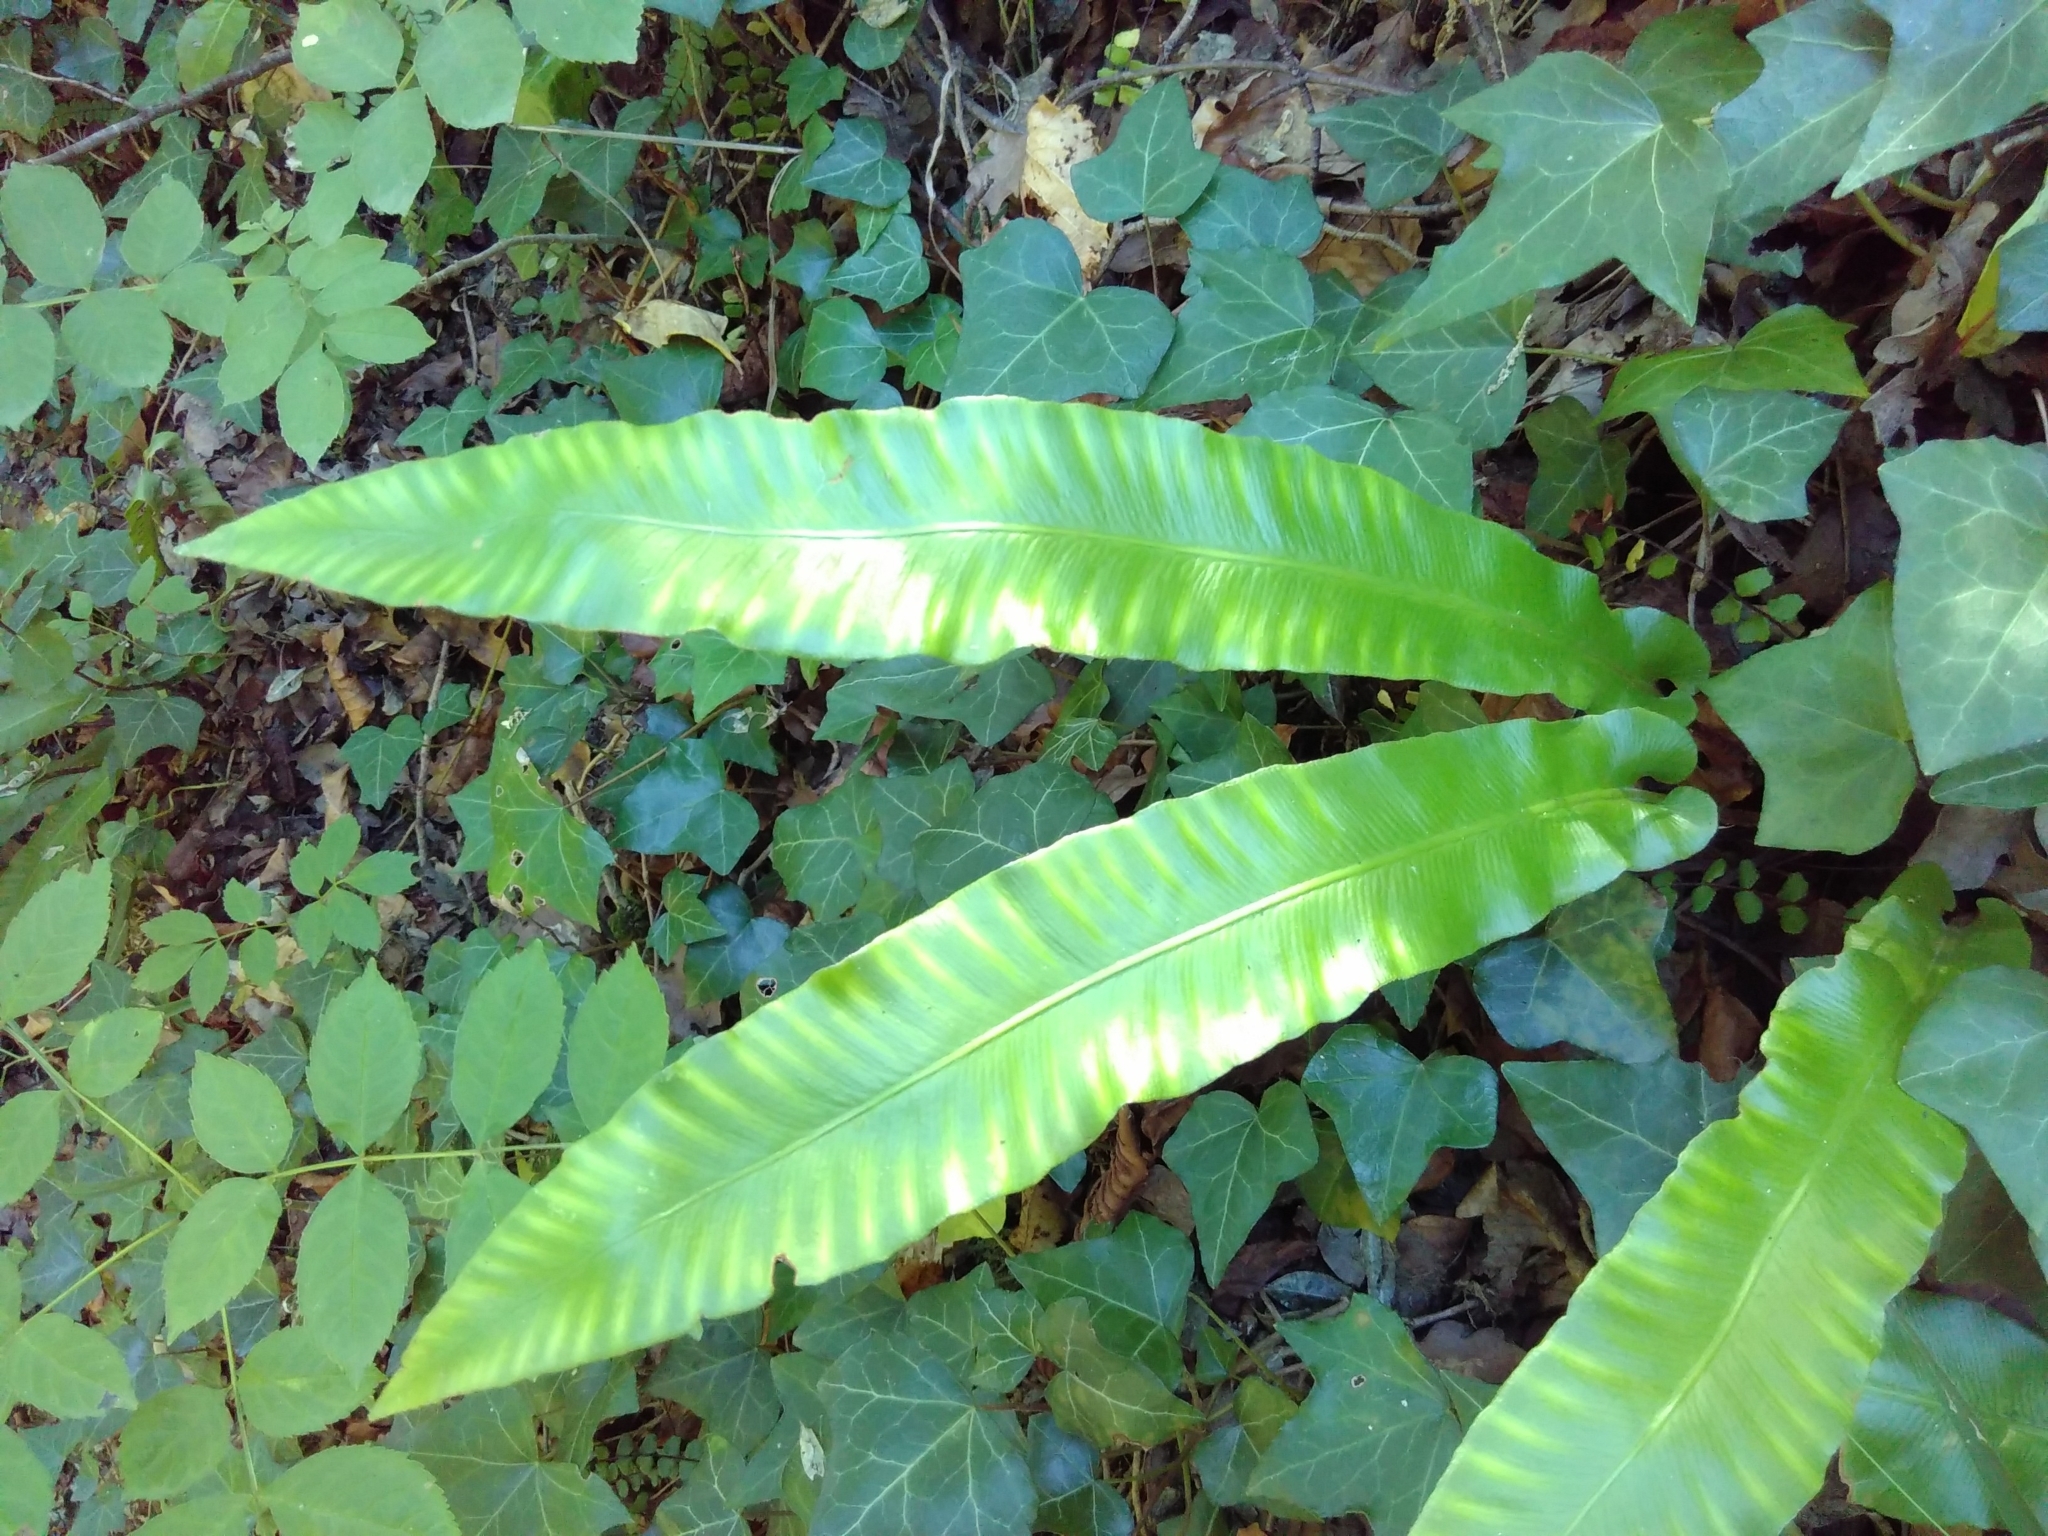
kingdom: Plantae
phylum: Tracheophyta
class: Polypodiopsida
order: Polypodiales
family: Aspleniaceae
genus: Asplenium
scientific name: Asplenium scolopendrium
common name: Hart's-tongue fern
